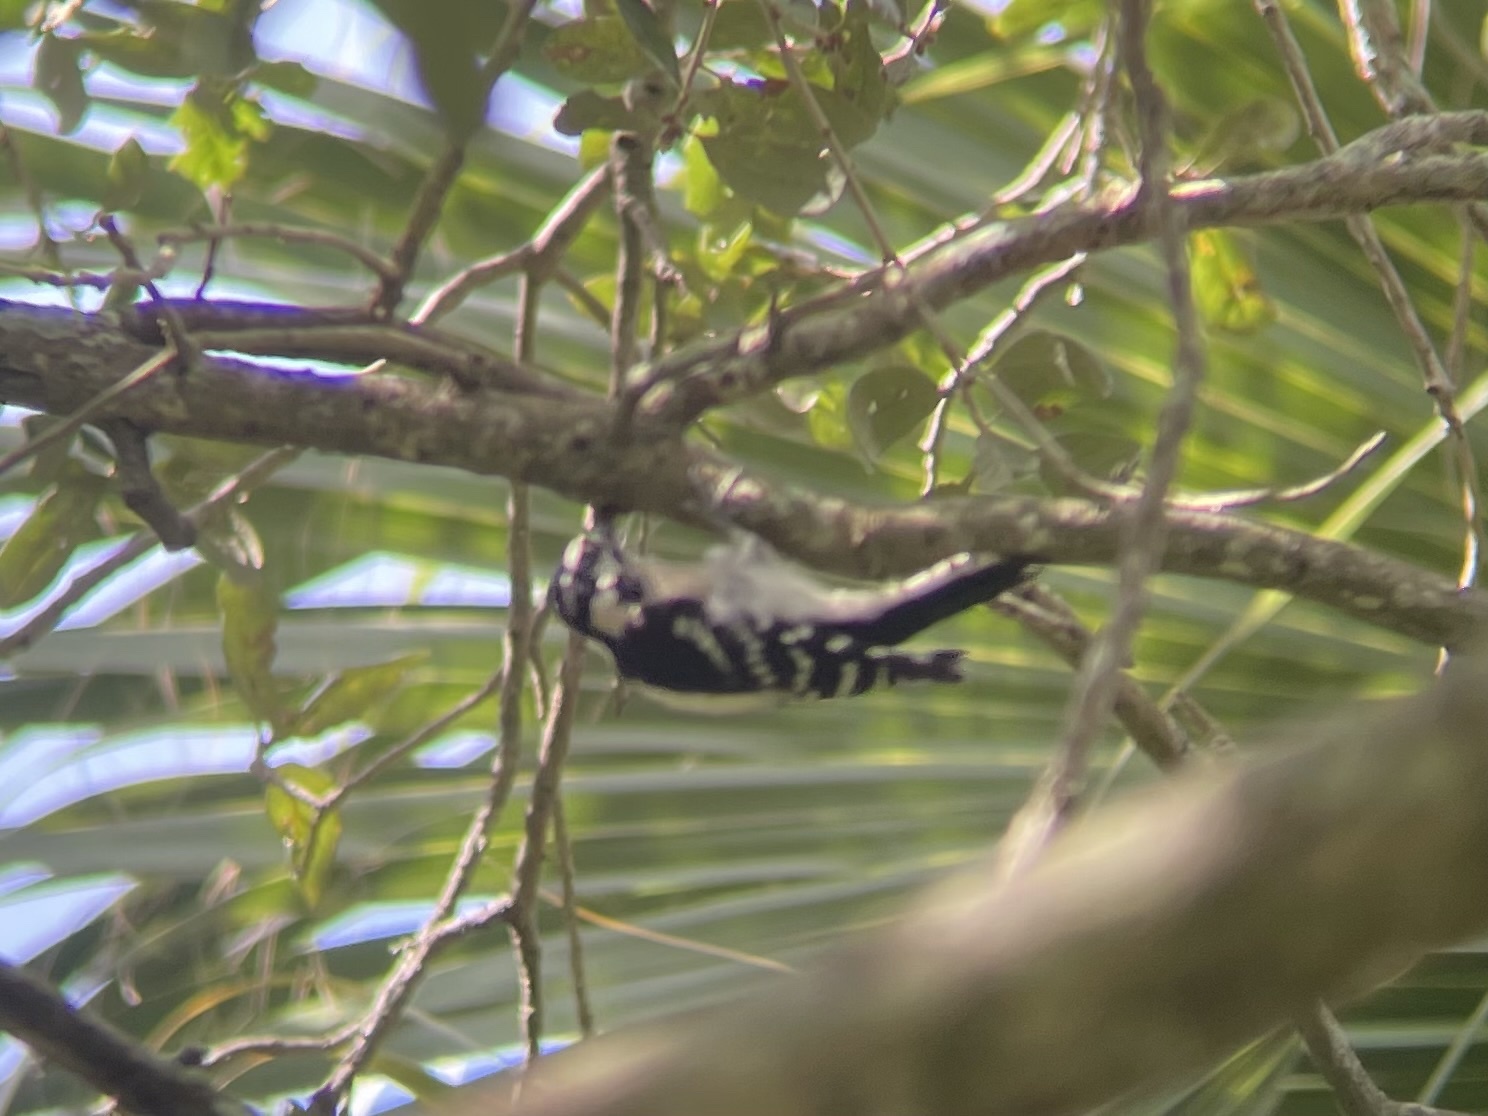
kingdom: Animalia
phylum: Chordata
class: Aves
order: Piciformes
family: Picidae
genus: Dryobates
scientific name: Dryobates pubescens
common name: Downy woodpecker
